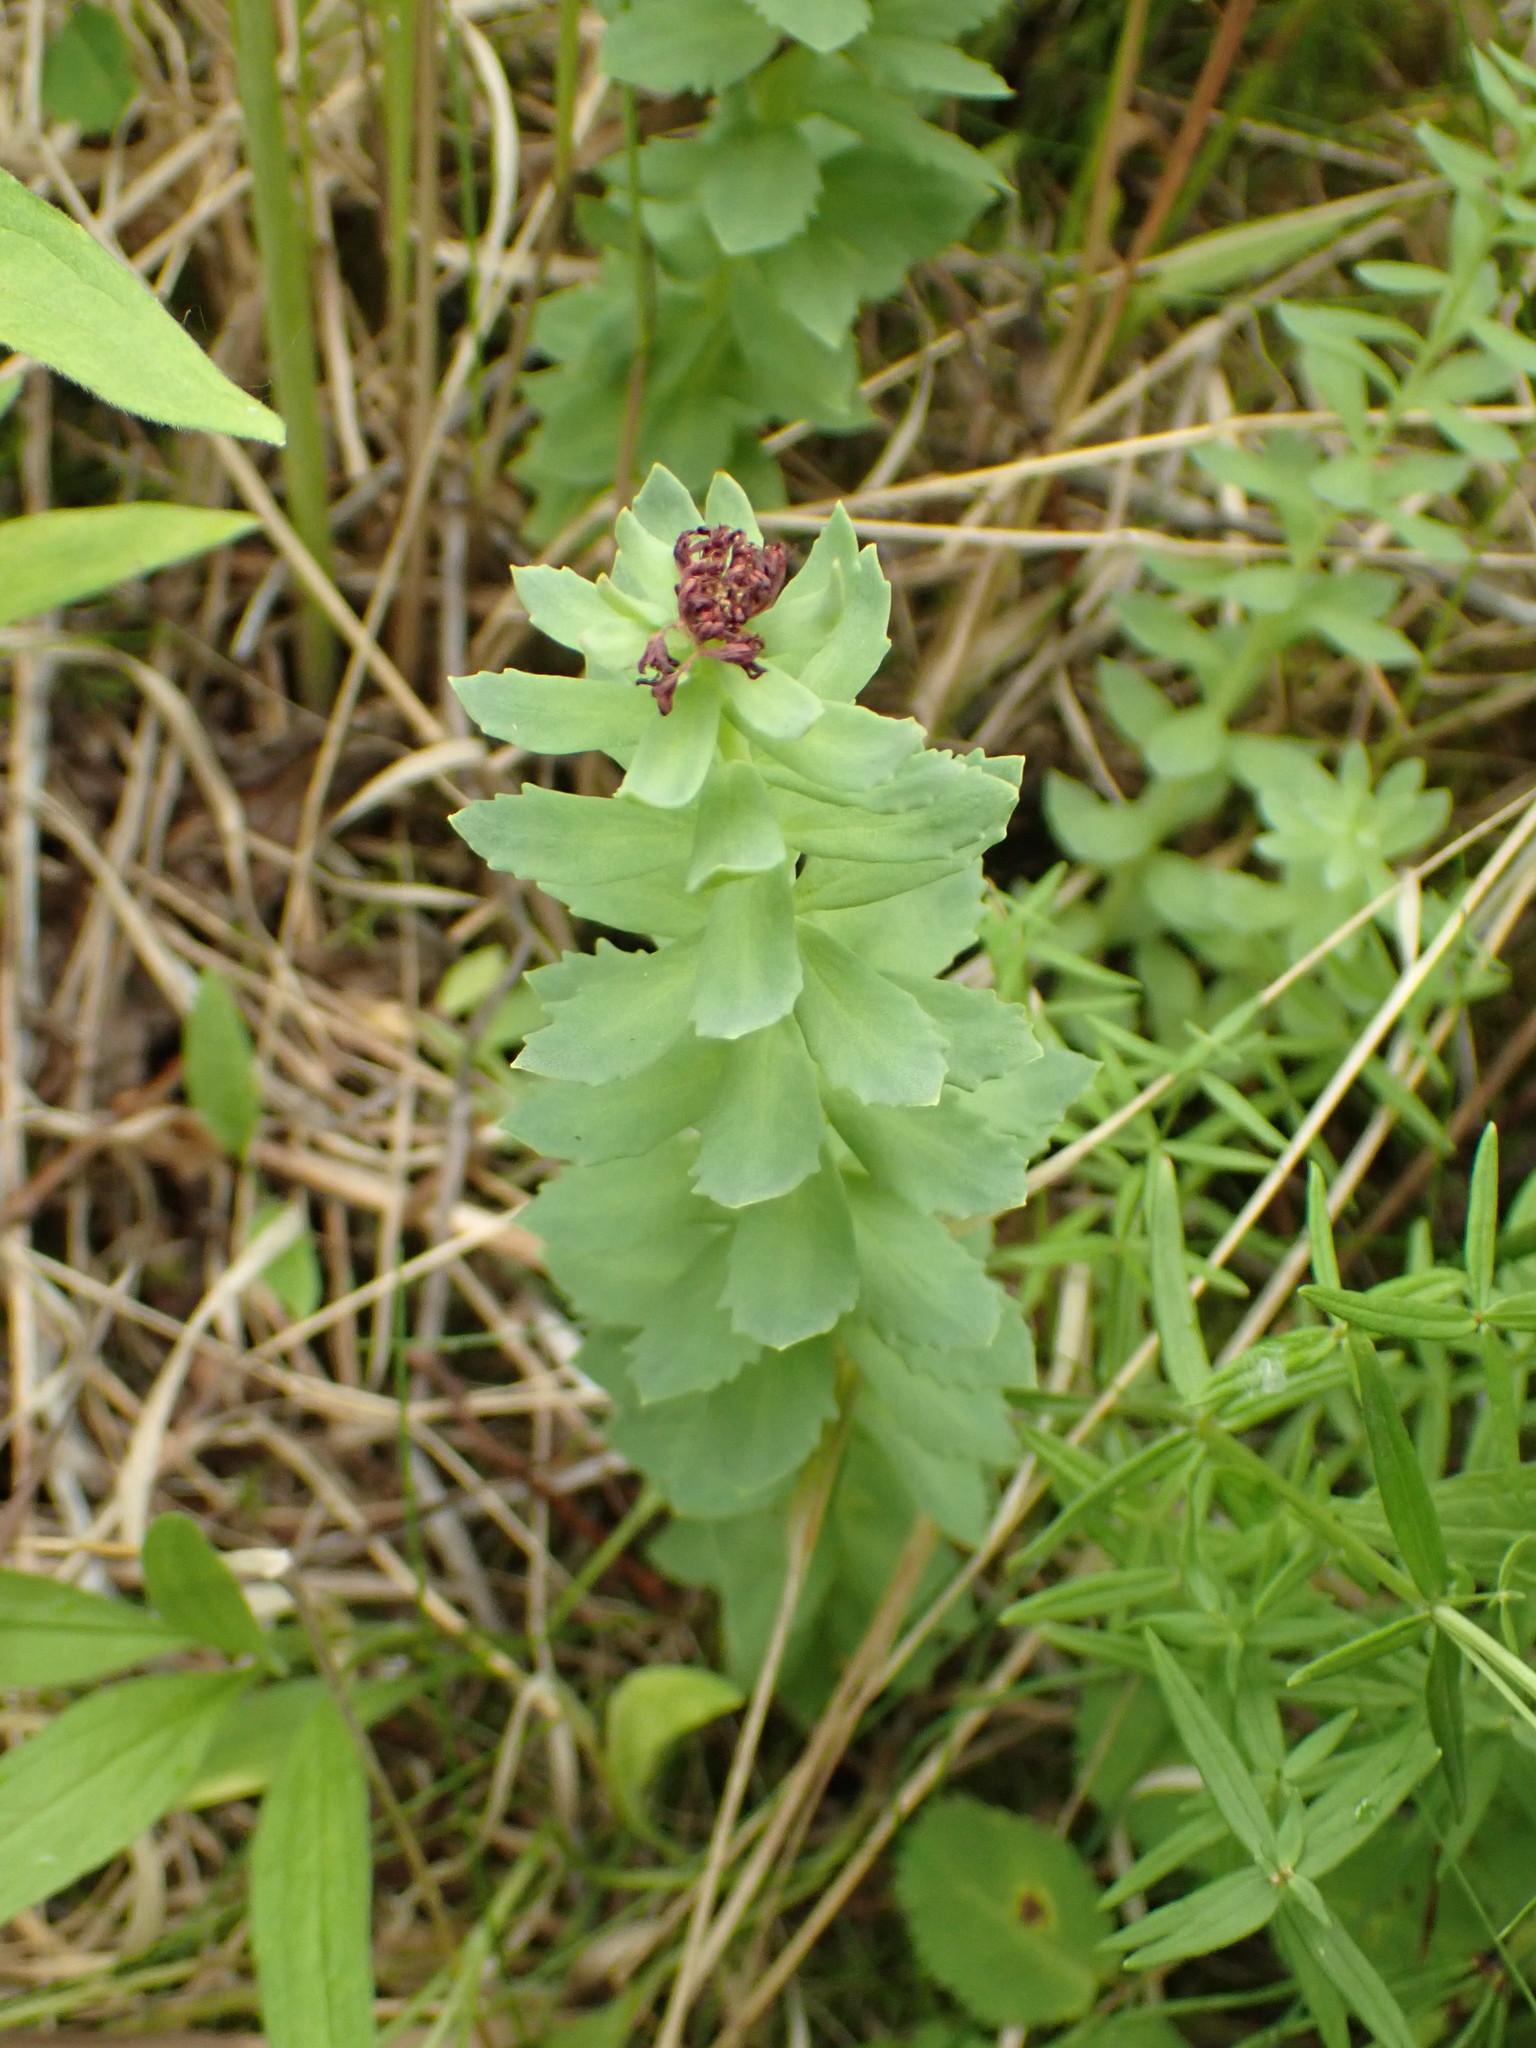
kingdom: Plantae
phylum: Tracheophyta
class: Magnoliopsida
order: Saxifragales
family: Crassulaceae
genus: Rhodiola
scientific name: Rhodiola integrifolia
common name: Western roseroot
